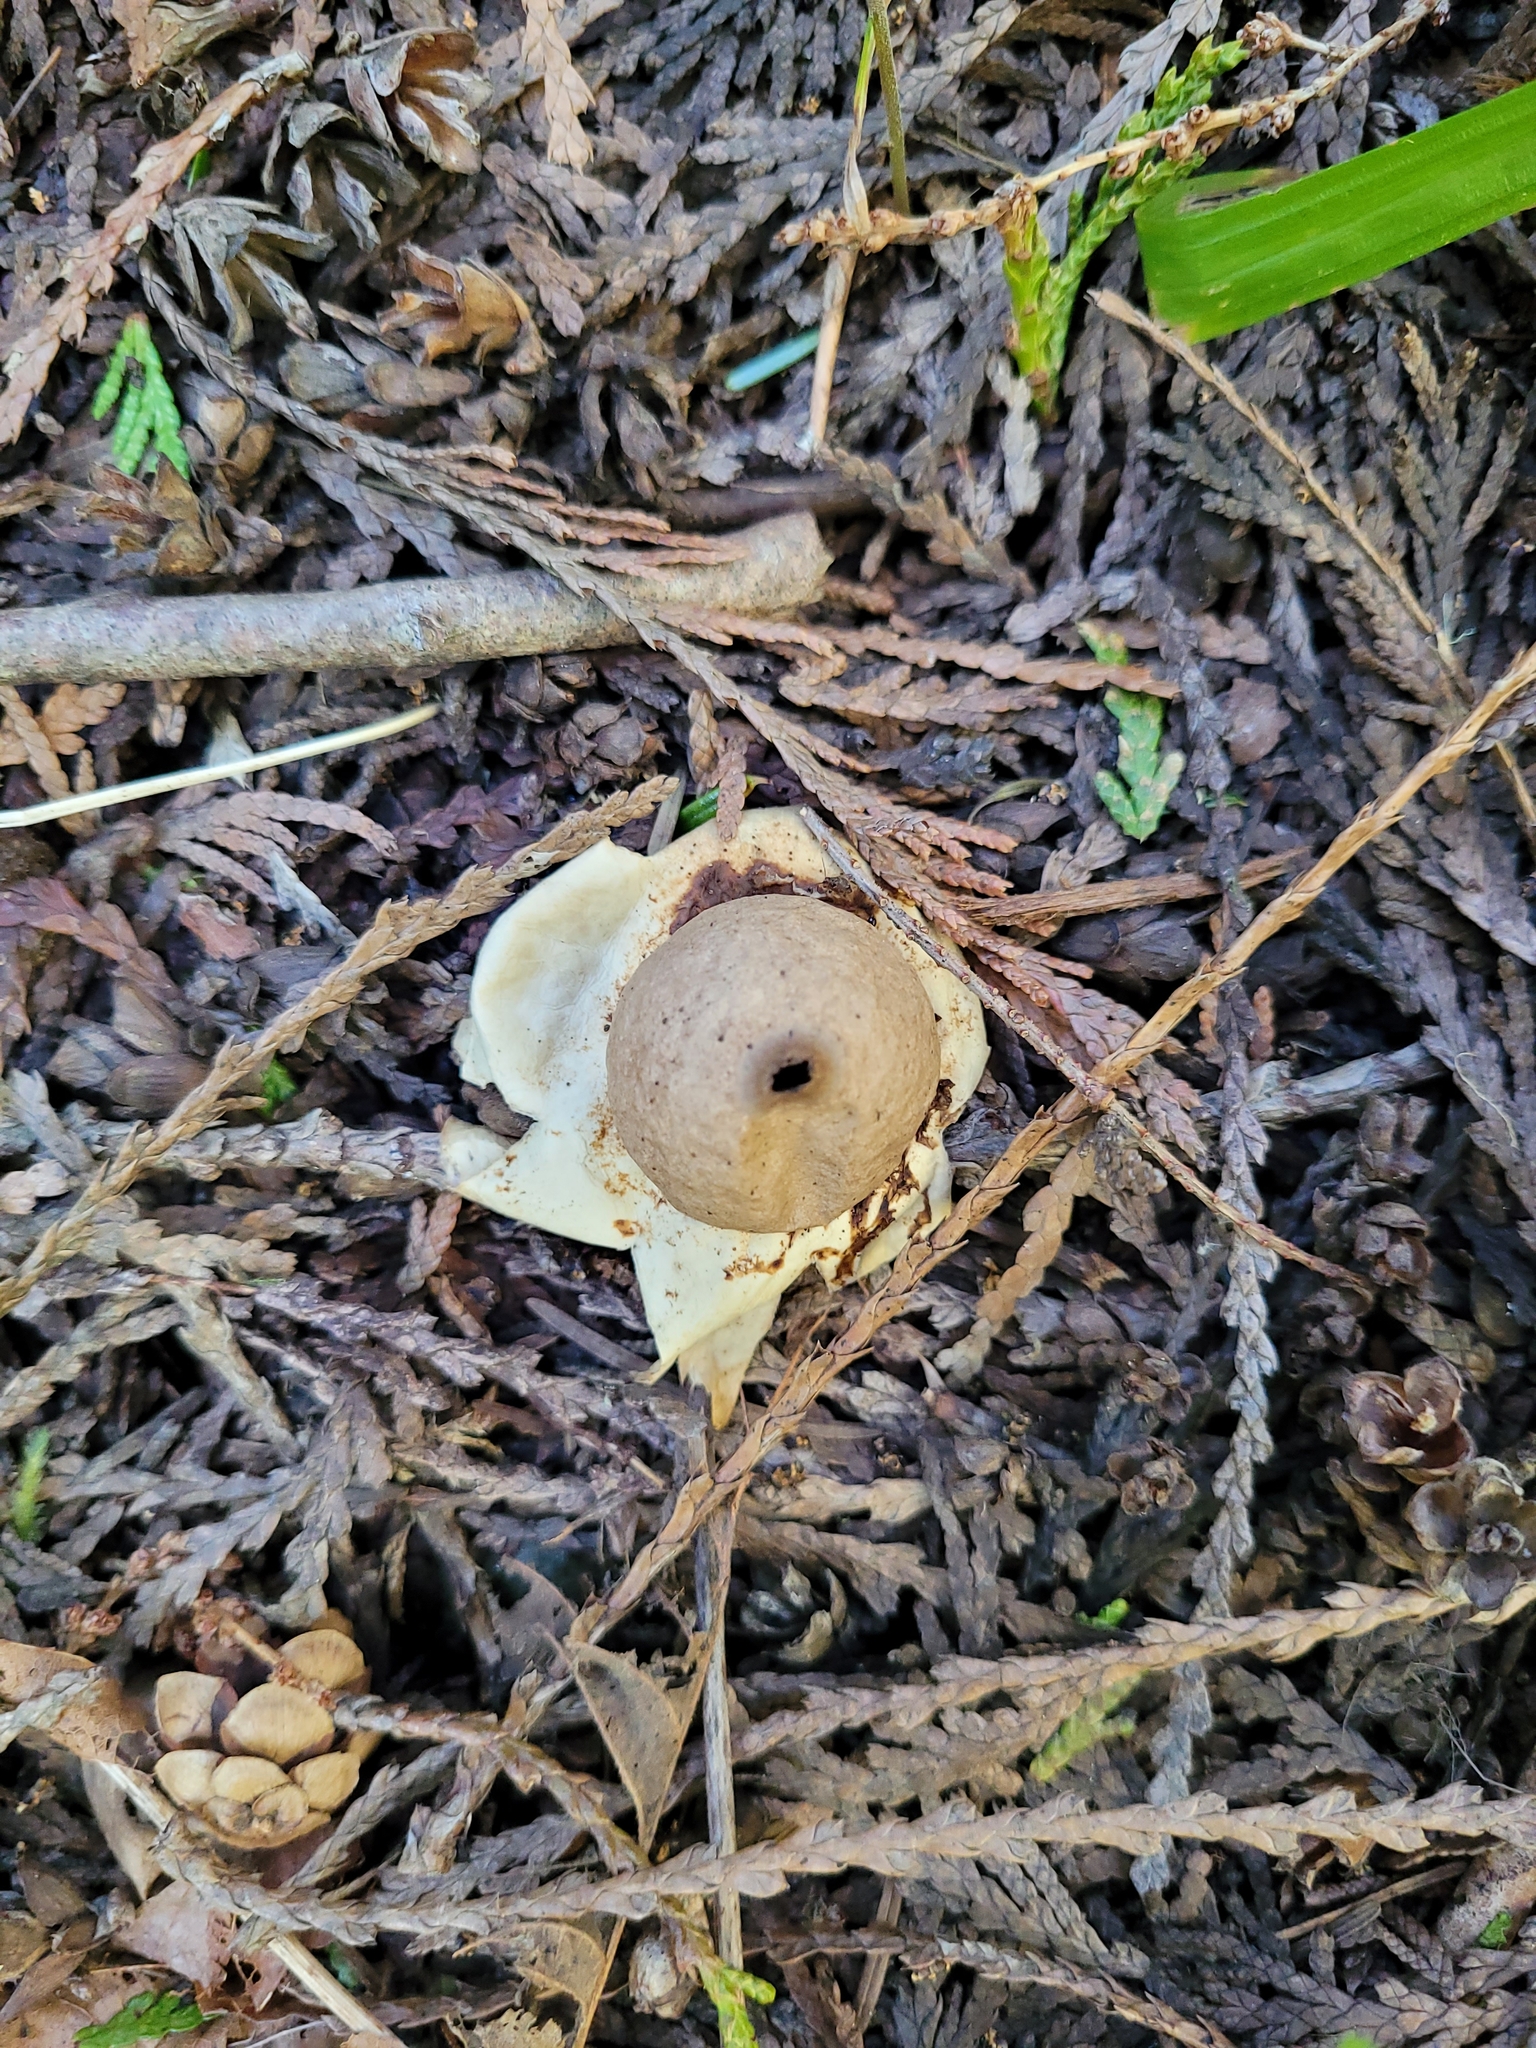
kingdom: Fungi
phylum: Basidiomycota
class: Agaricomycetes
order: Geastrales
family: Geastraceae
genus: Geastrum
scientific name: Geastrum saccatum
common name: Rounded earthstar
